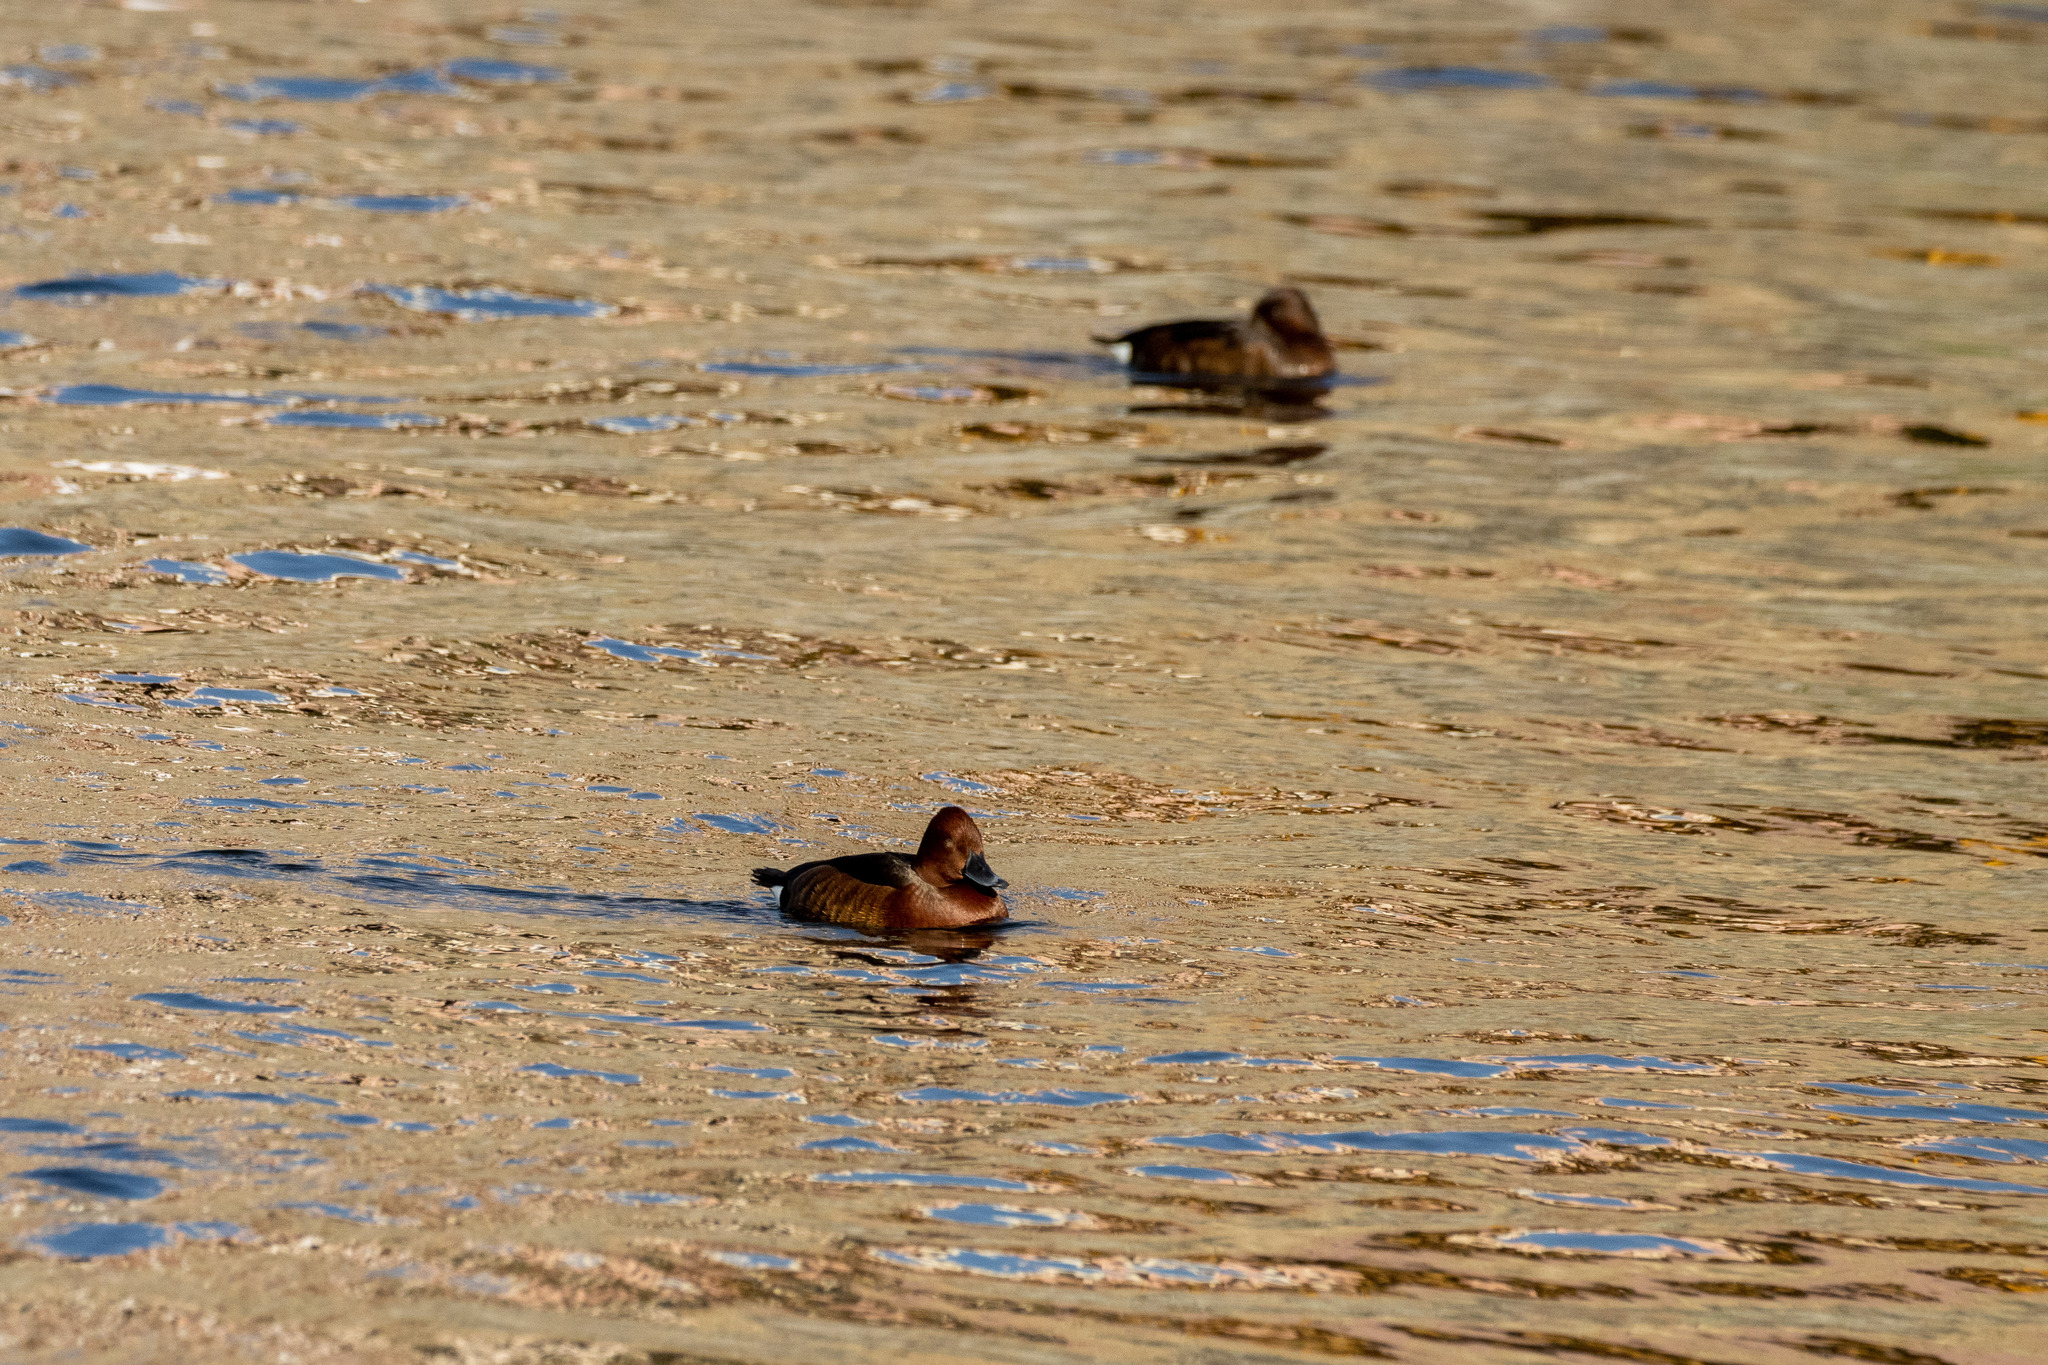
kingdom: Animalia
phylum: Chordata
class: Aves
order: Anseriformes
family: Anatidae
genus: Aythya
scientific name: Aythya nyroca
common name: Ferruginous duck
